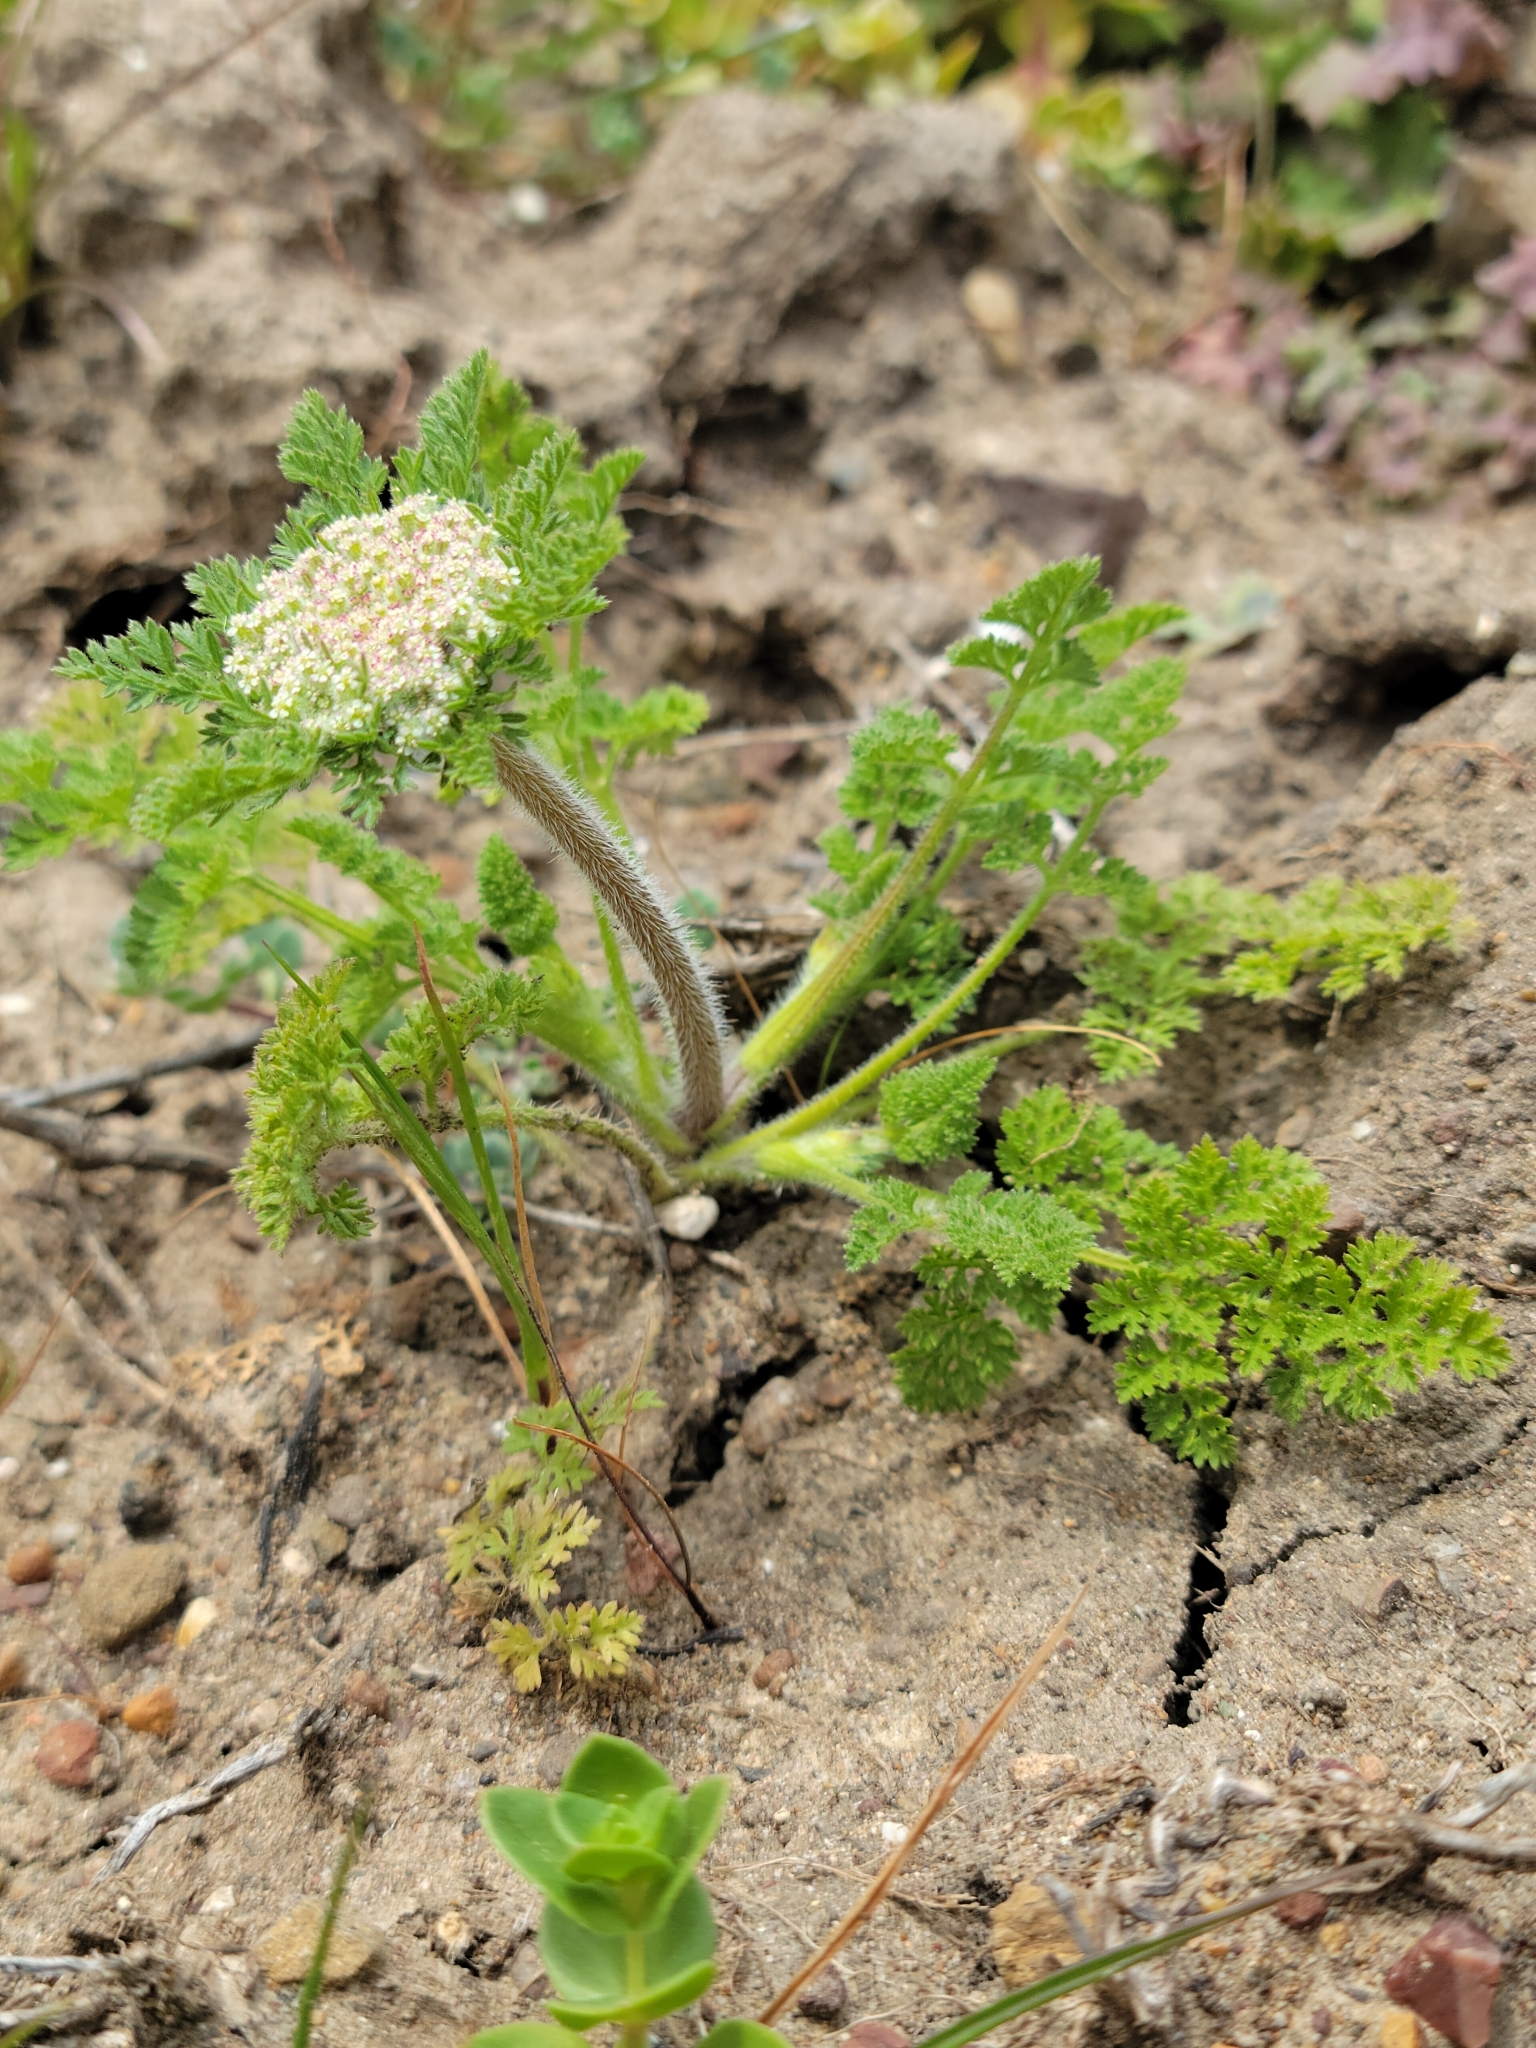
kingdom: Plantae
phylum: Tracheophyta
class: Magnoliopsida
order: Apiales
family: Apiaceae
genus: Daucus
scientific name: Daucus pusillus
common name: Southwest wild carrot
